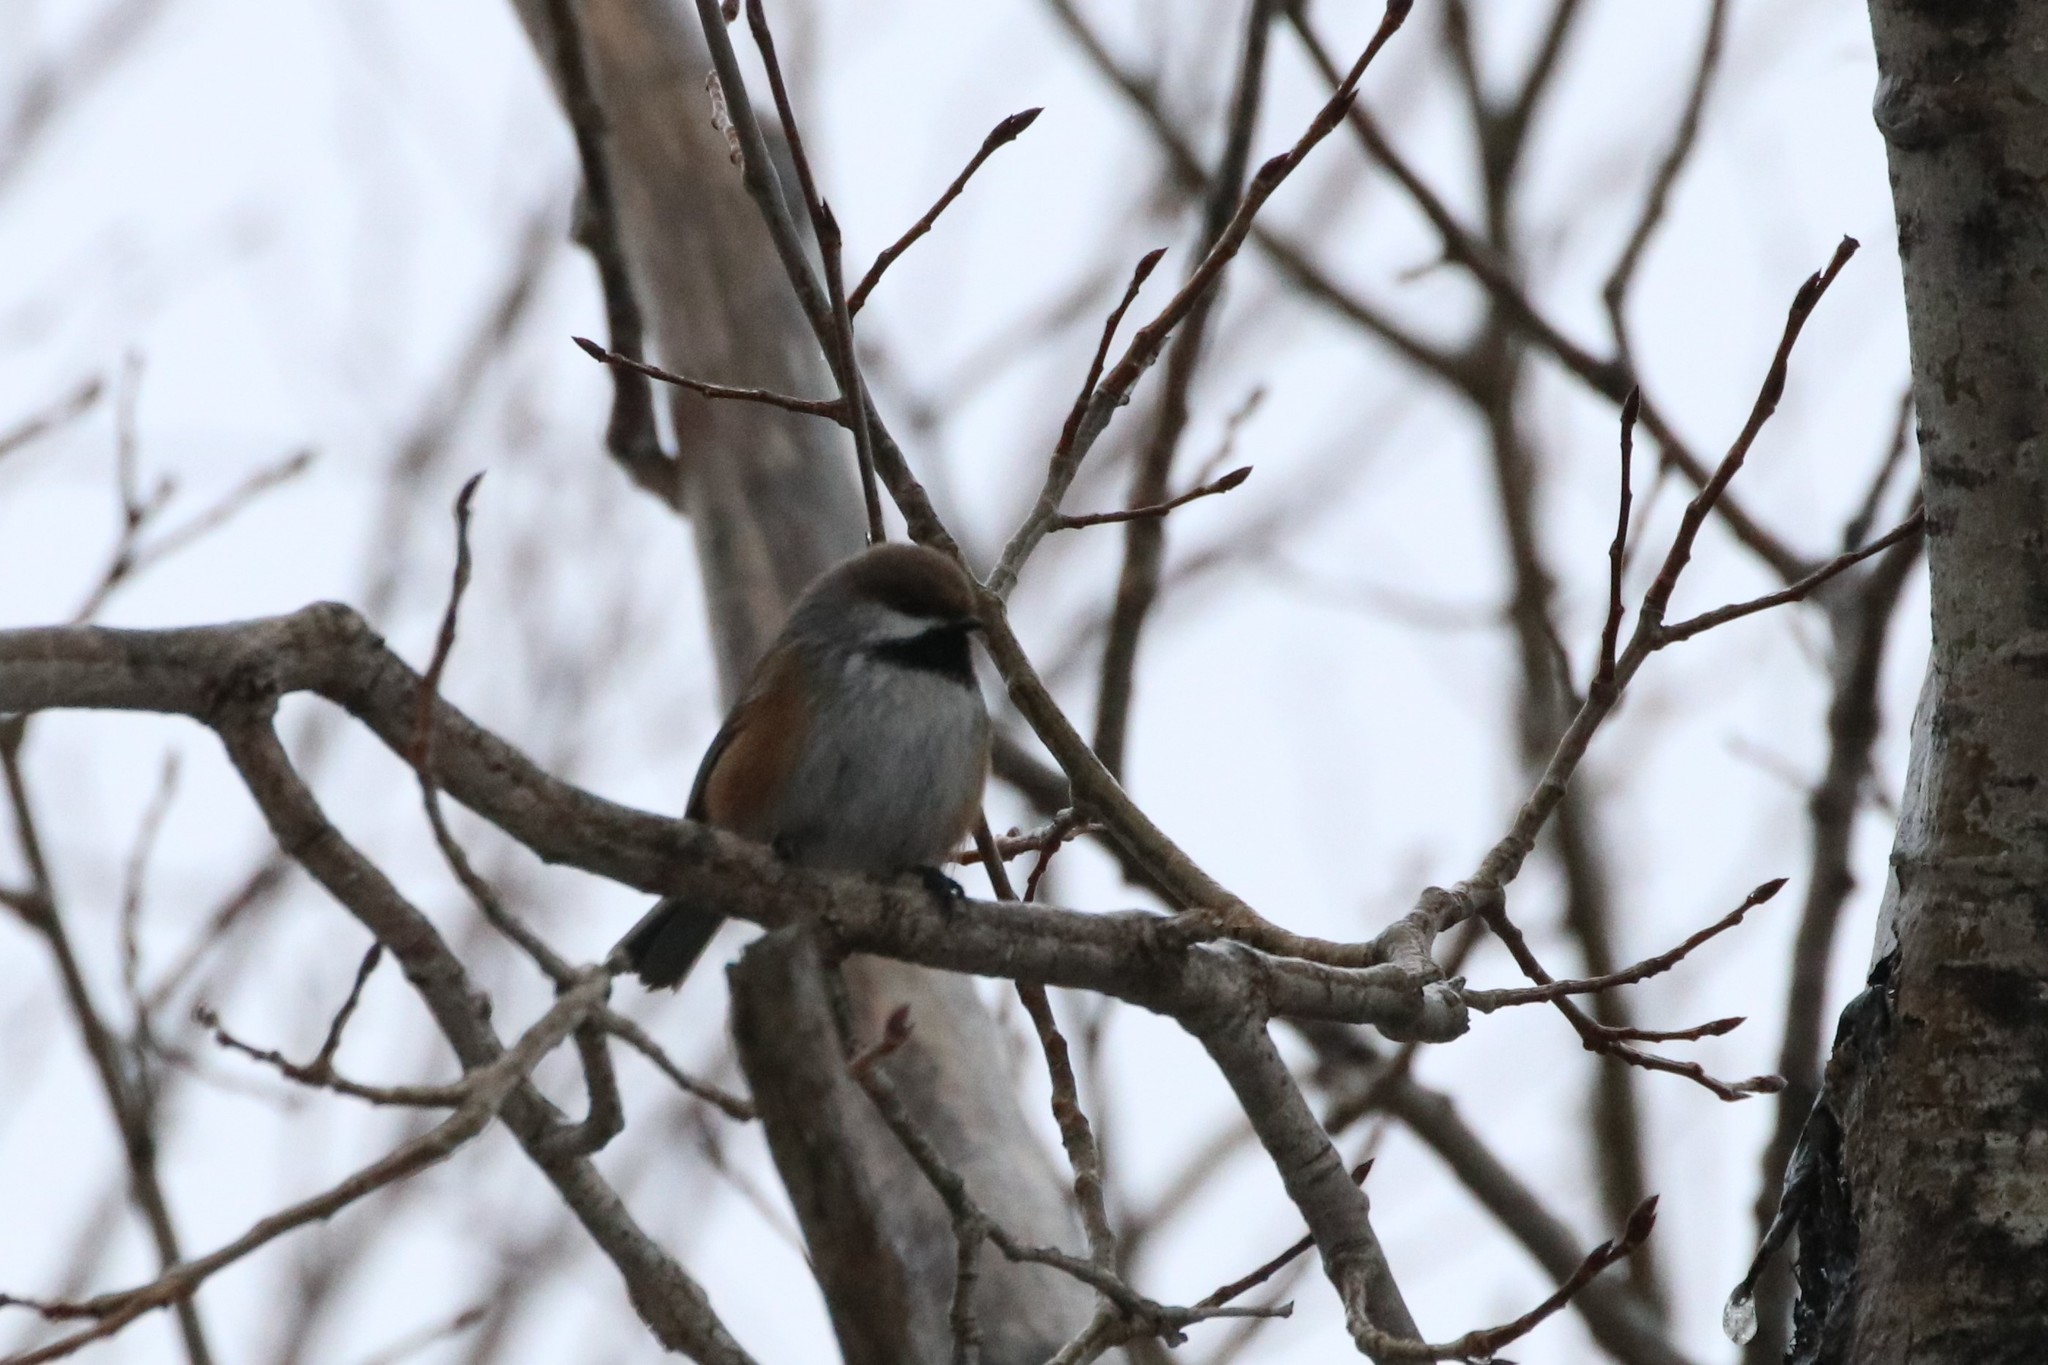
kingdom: Animalia
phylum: Chordata
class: Aves
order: Passeriformes
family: Paridae
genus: Poecile
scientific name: Poecile hudsonicus
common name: Boreal chickadee
